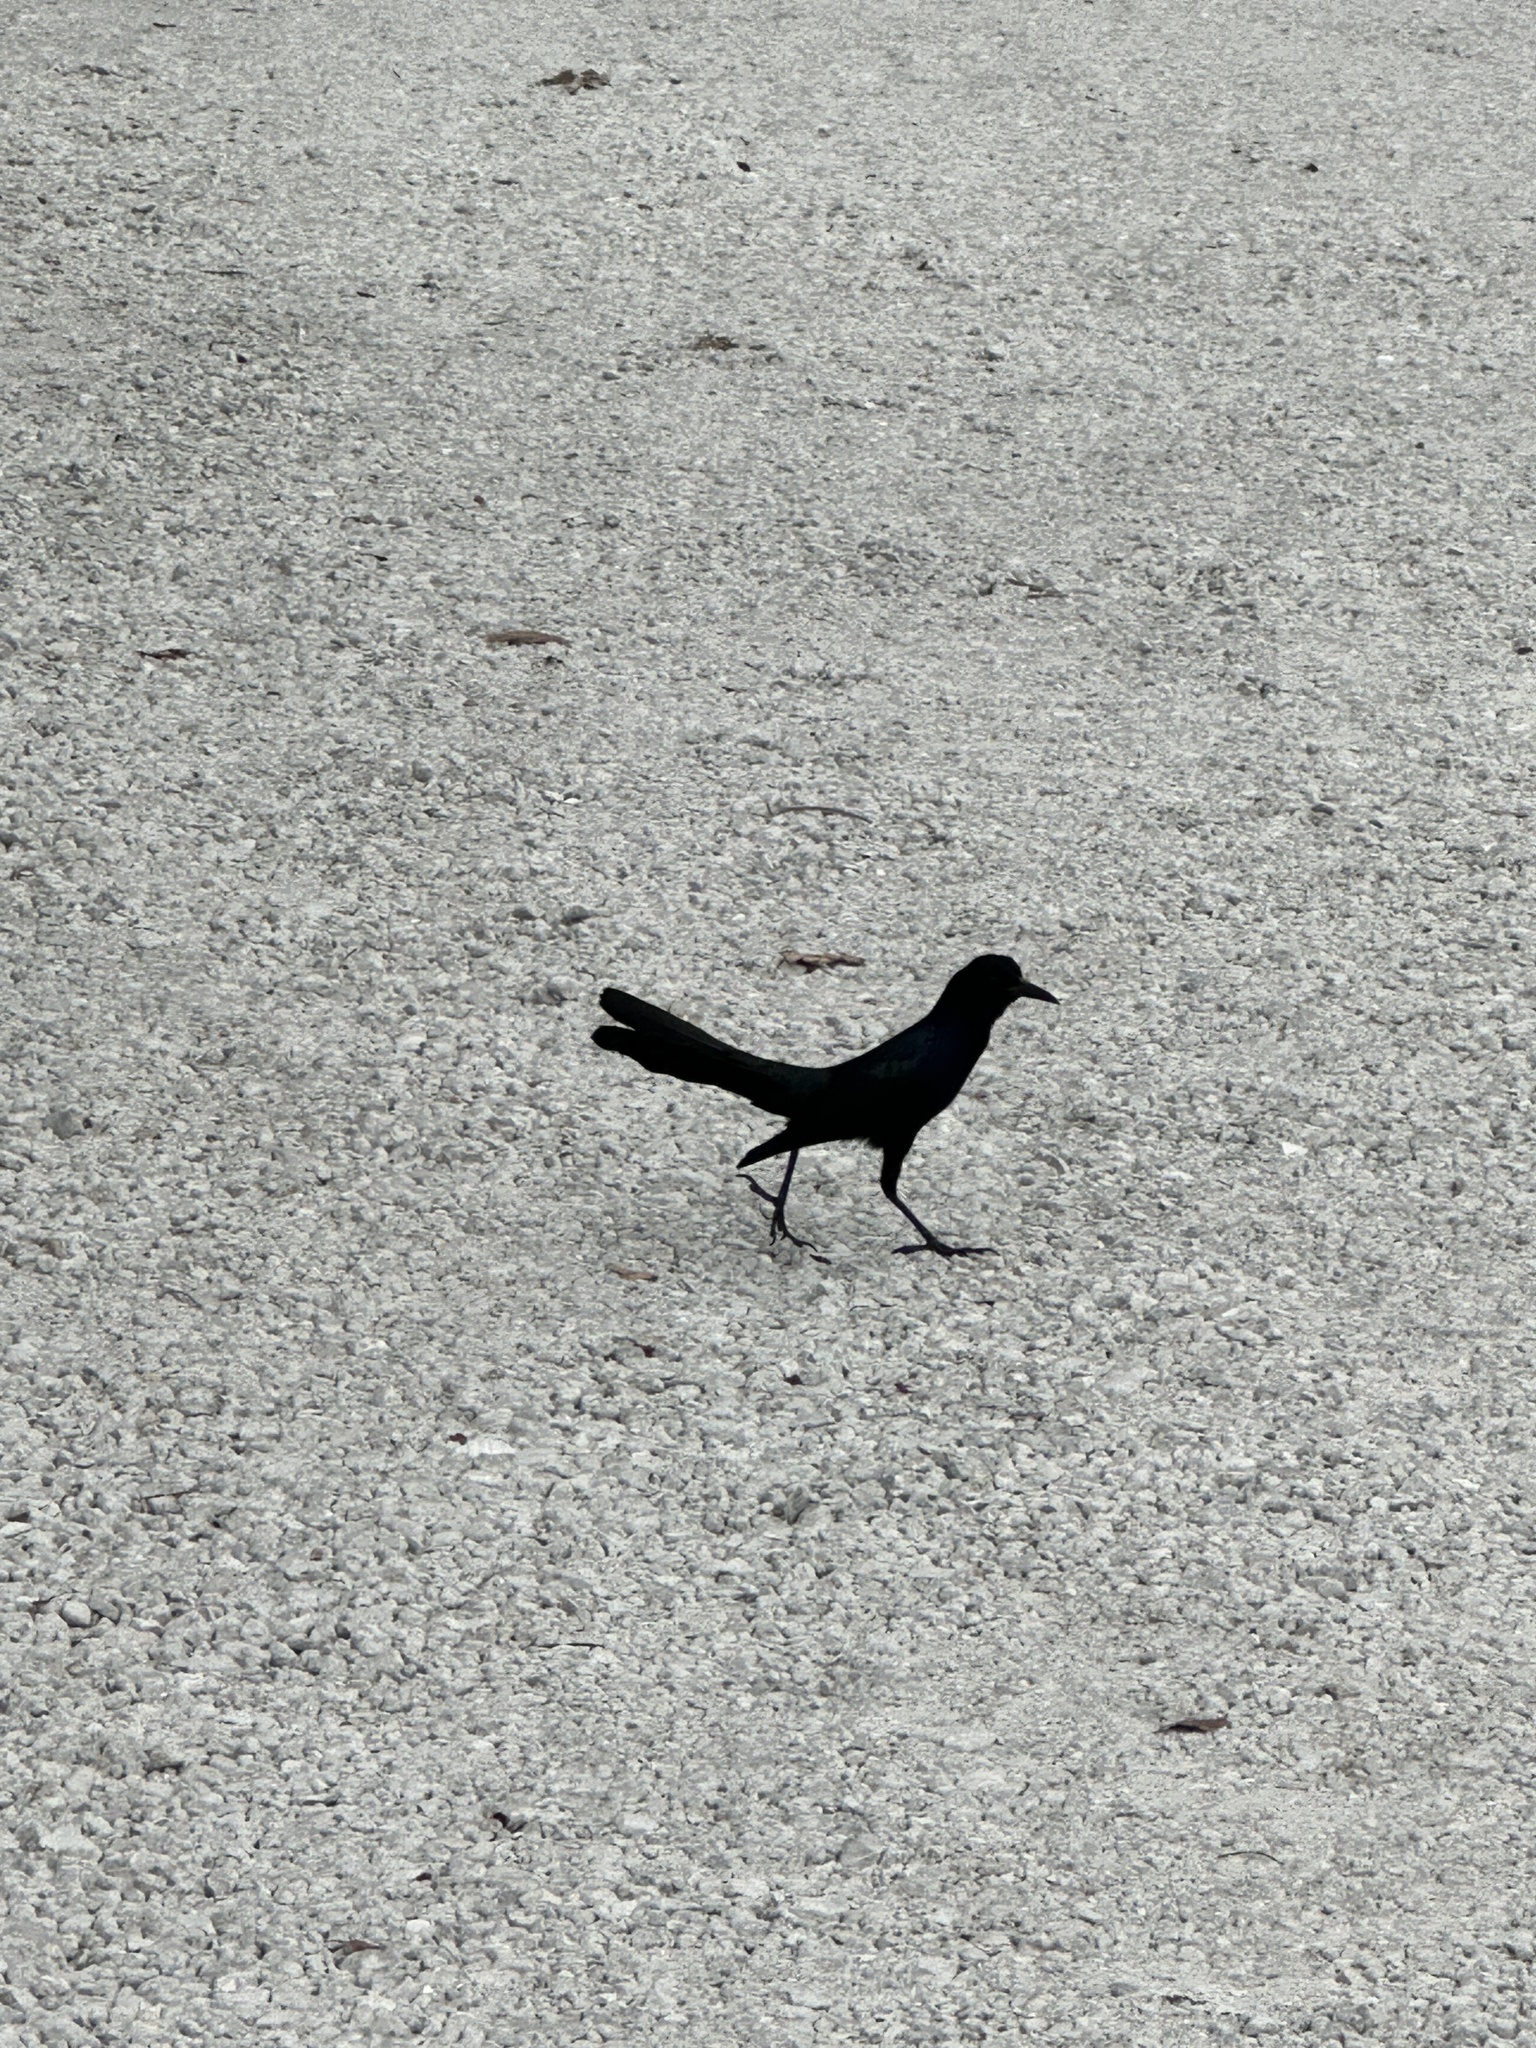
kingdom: Animalia
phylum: Chordata
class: Aves
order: Passeriformes
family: Icteridae
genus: Quiscalus
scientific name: Quiscalus major
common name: Boat-tailed grackle
